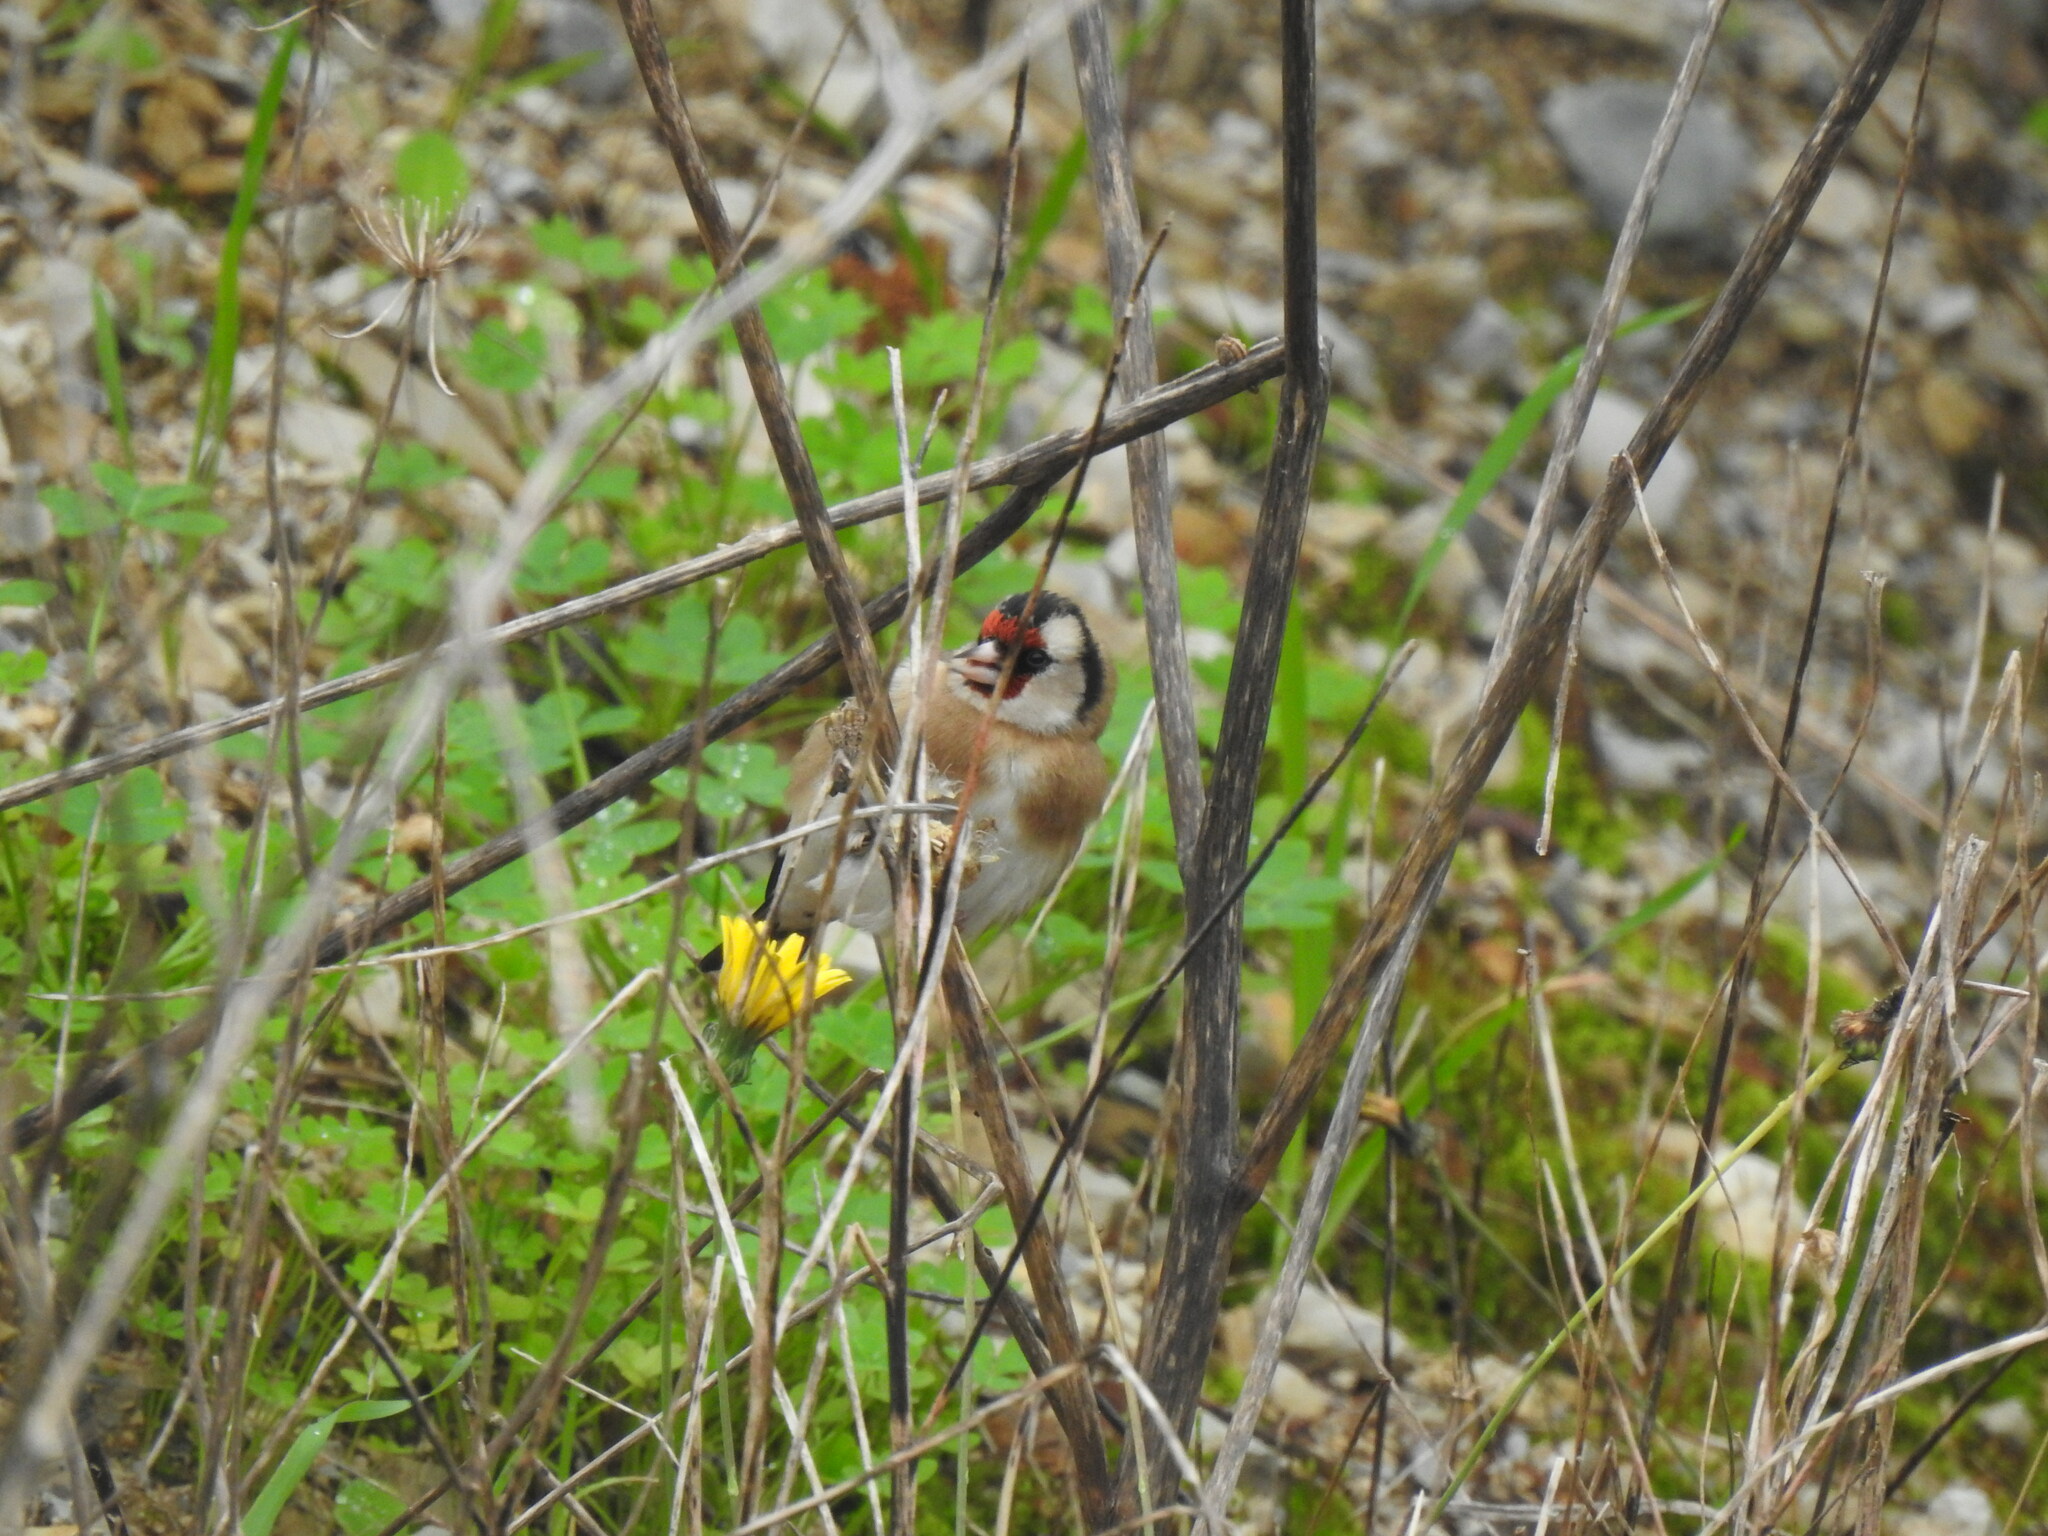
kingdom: Animalia
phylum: Chordata
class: Aves
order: Passeriformes
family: Fringillidae
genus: Carduelis
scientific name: Carduelis carduelis
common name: European goldfinch
